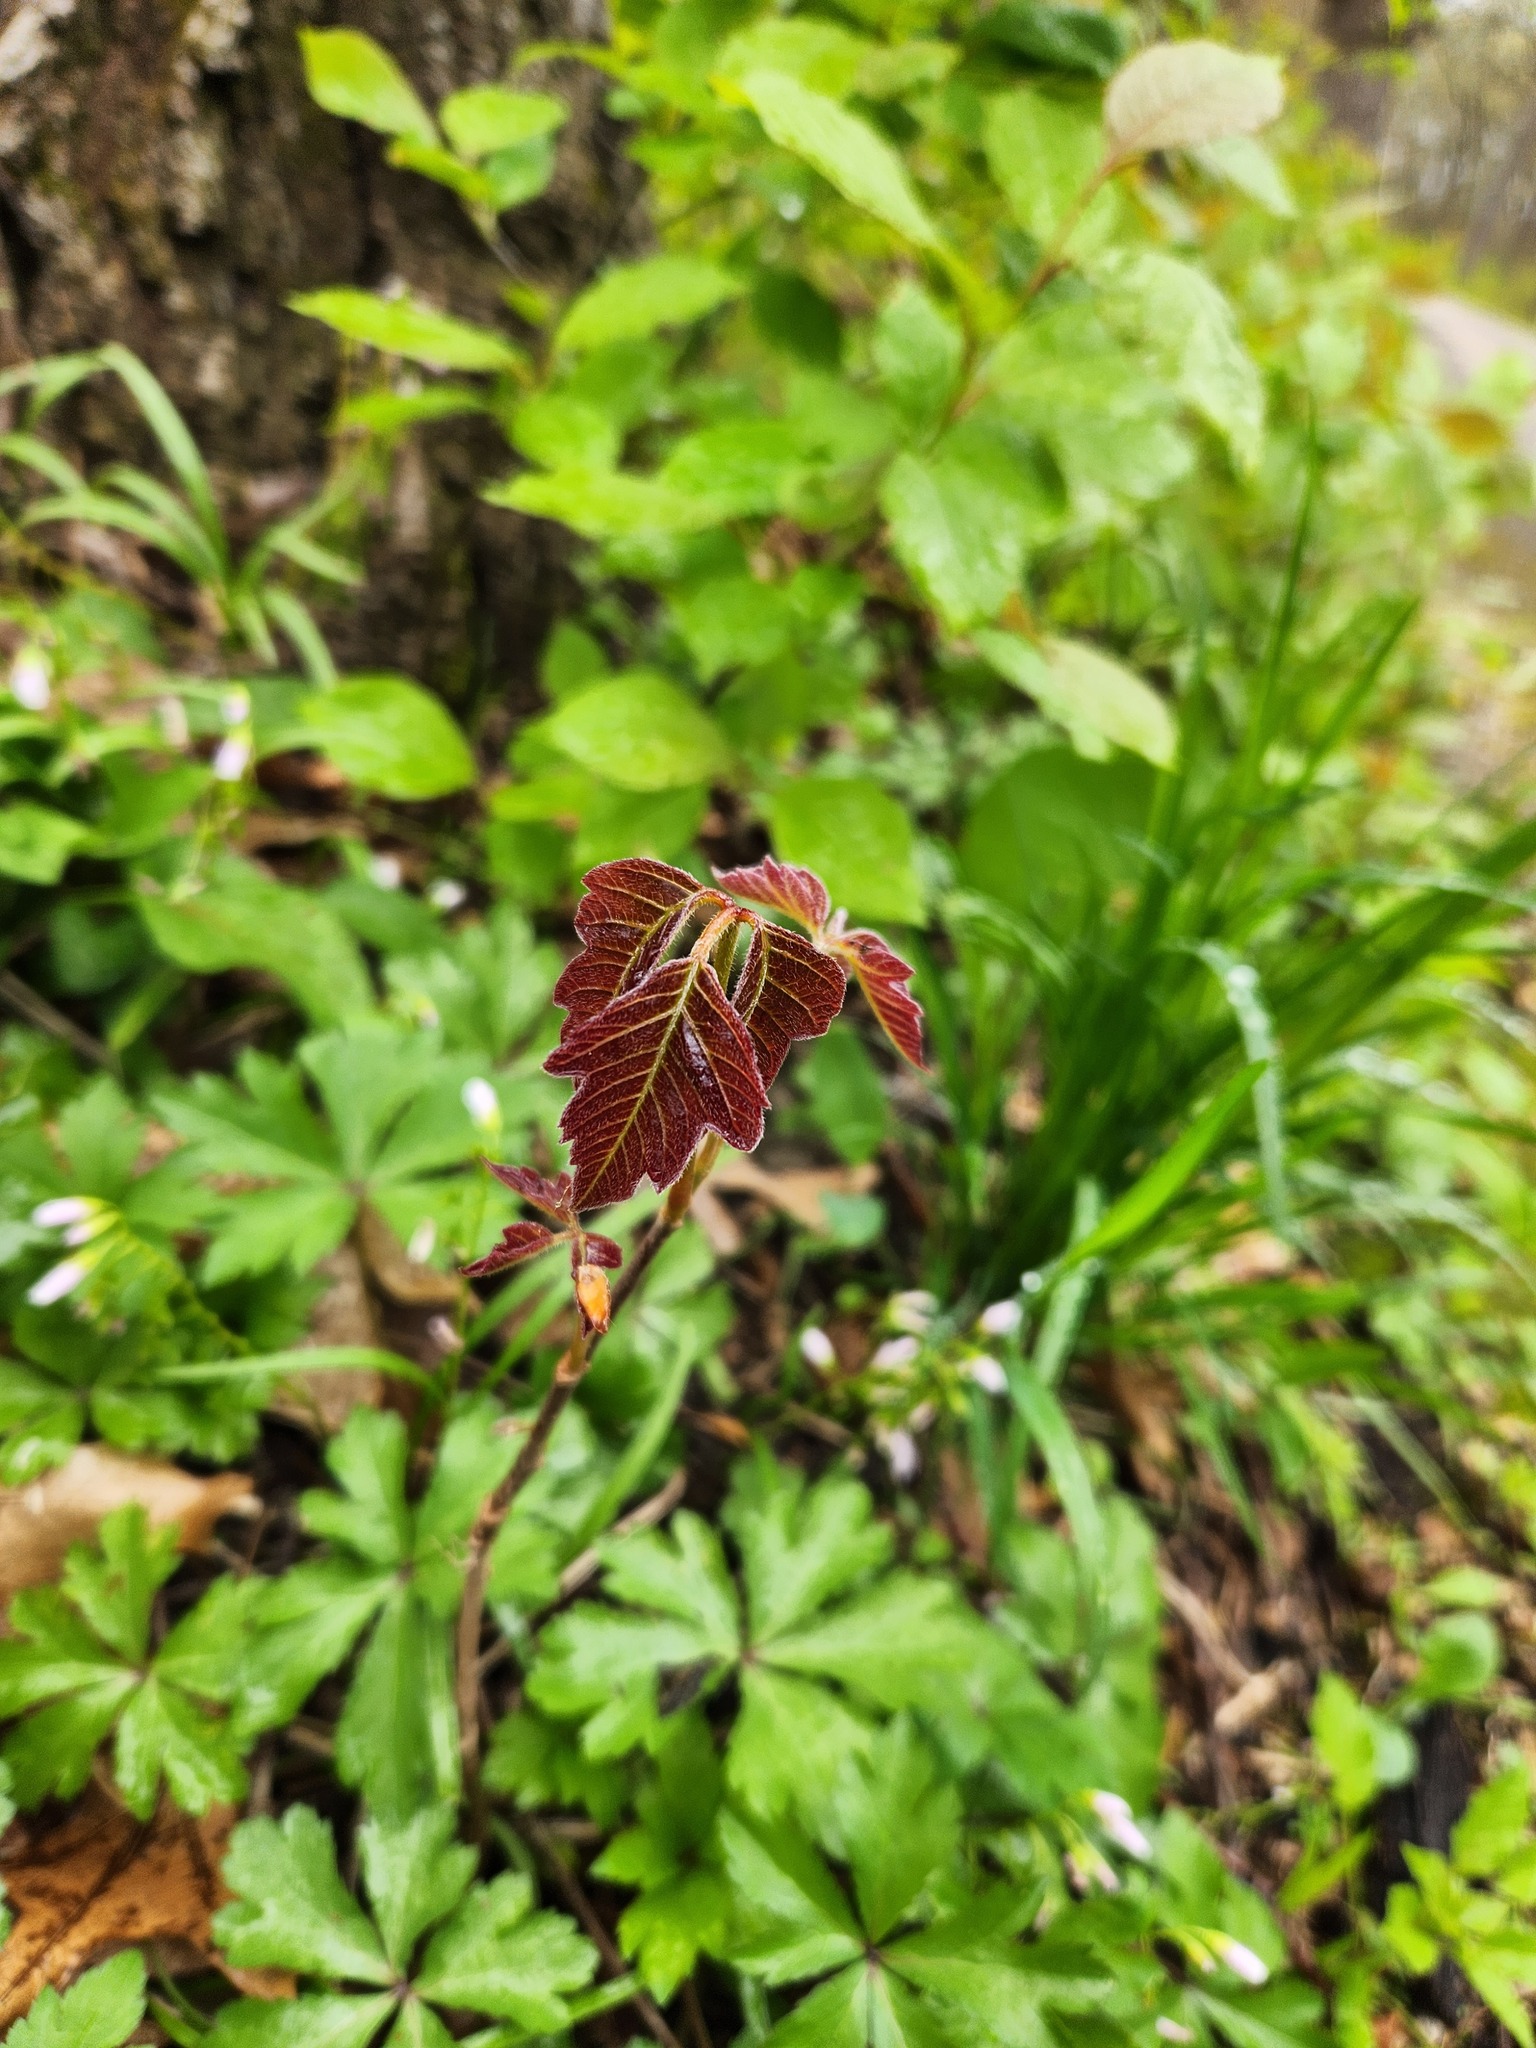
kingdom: Plantae
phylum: Tracheophyta
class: Magnoliopsida
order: Sapindales
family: Anacardiaceae
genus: Toxicodendron
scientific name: Toxicodendron radicans
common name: Poison ivy
